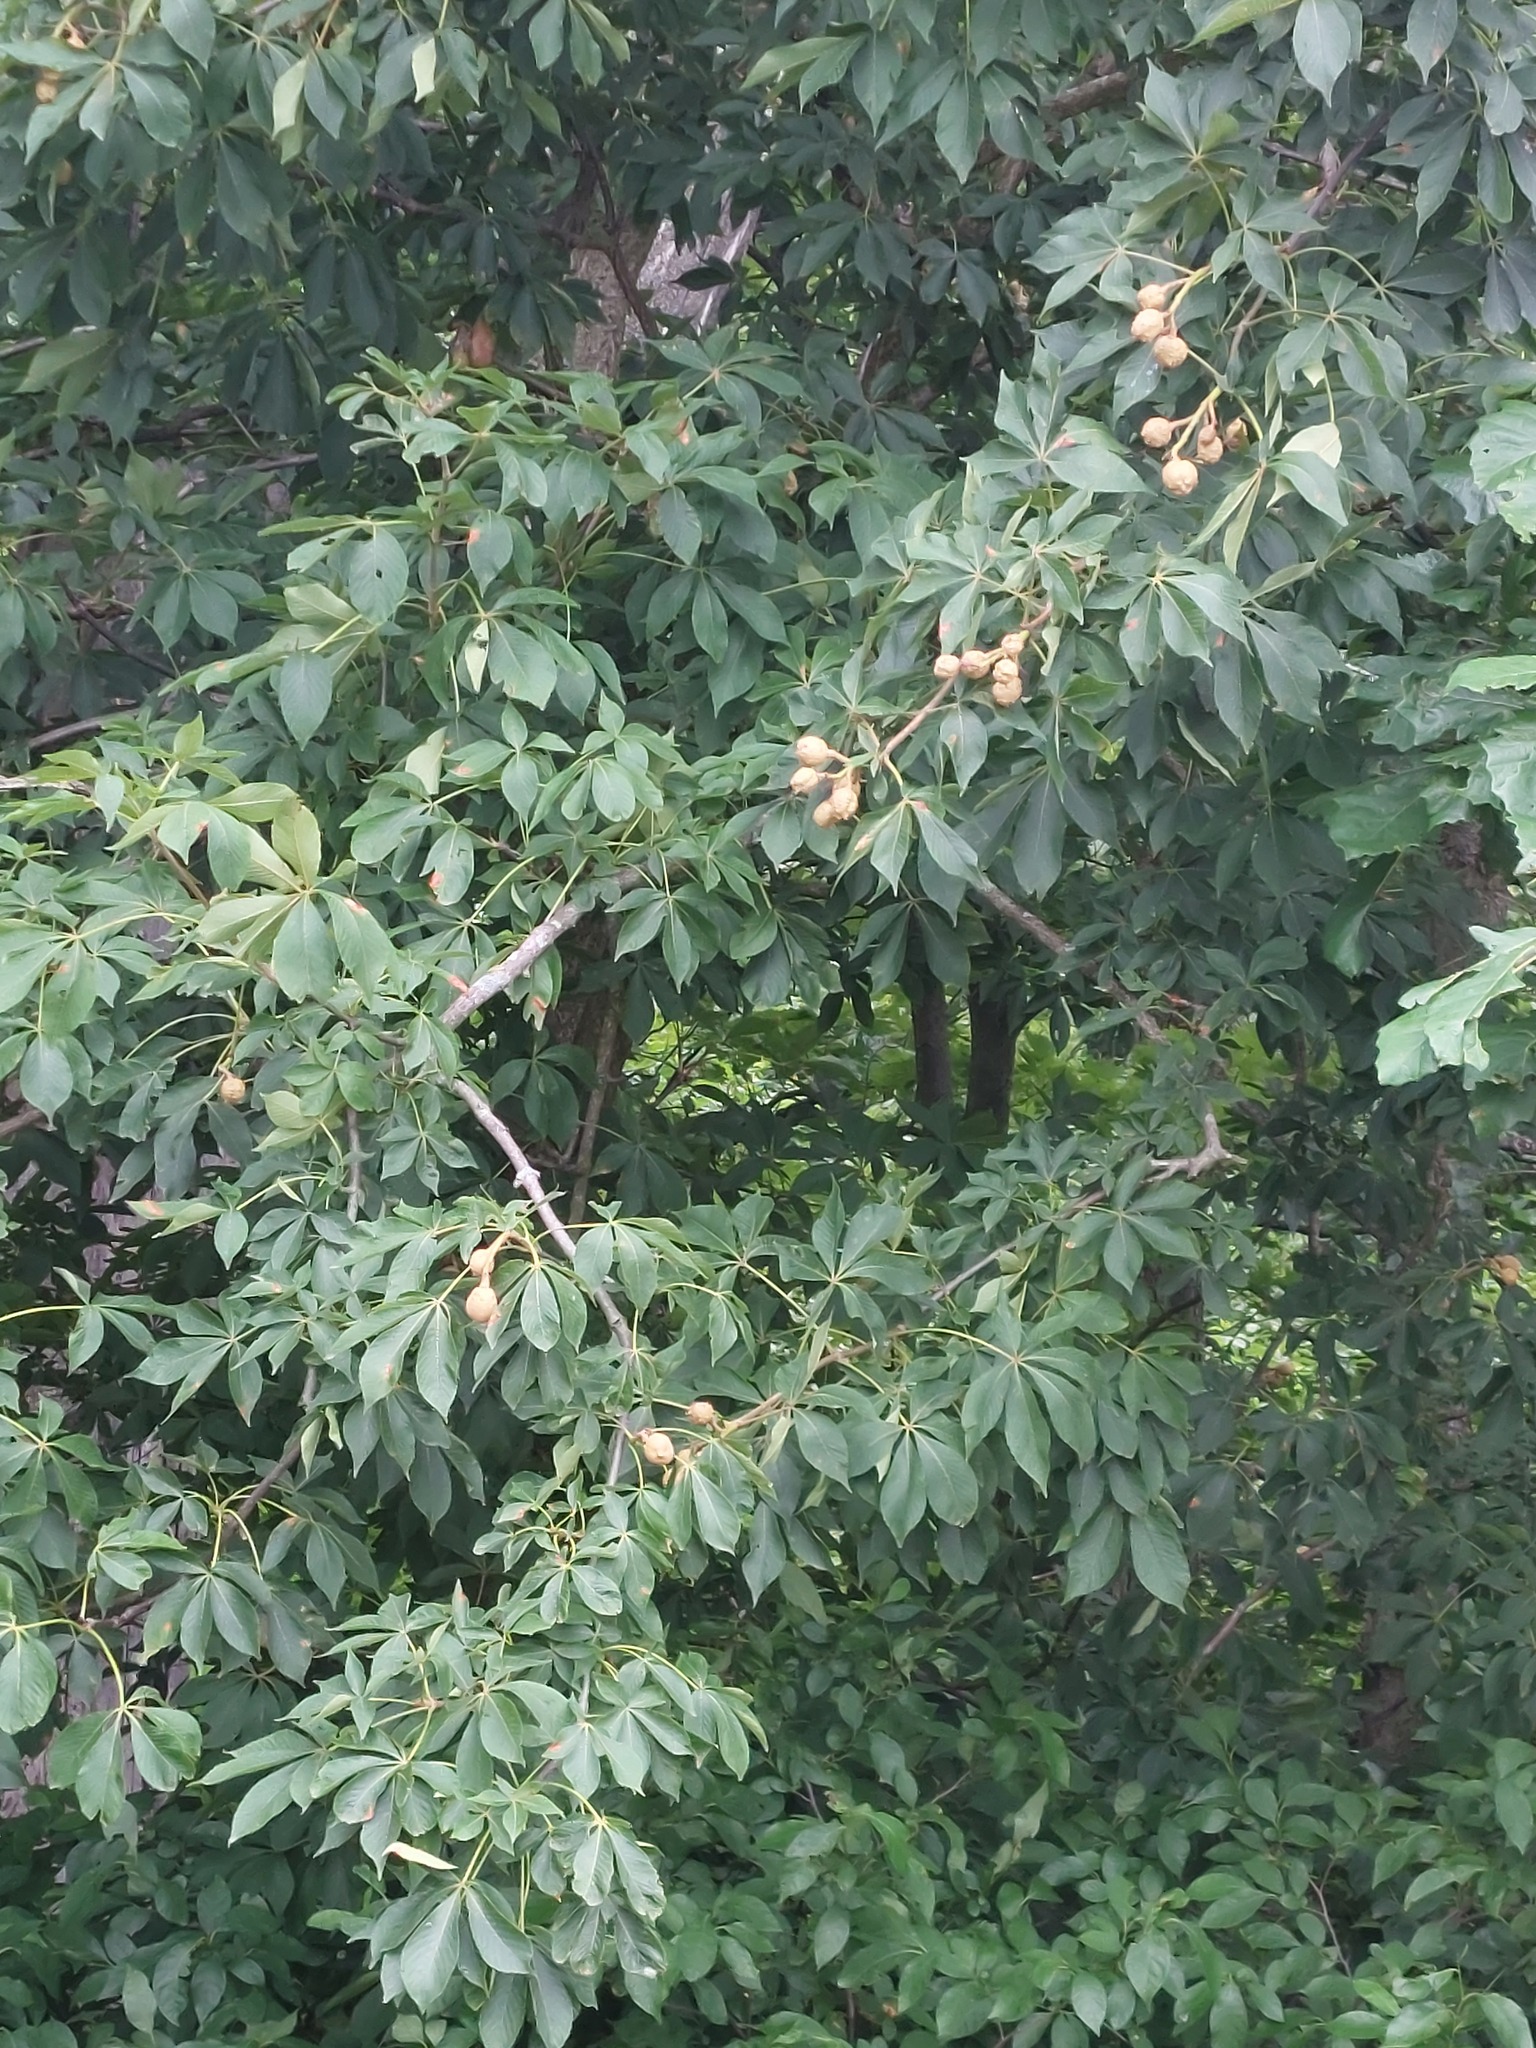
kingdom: Plantae
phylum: Tracheophyta
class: Magnoliopsida
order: Sapindales
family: Sapindaceae
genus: Aesculus
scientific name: Aesculus glabra
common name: Ohio buckeye
